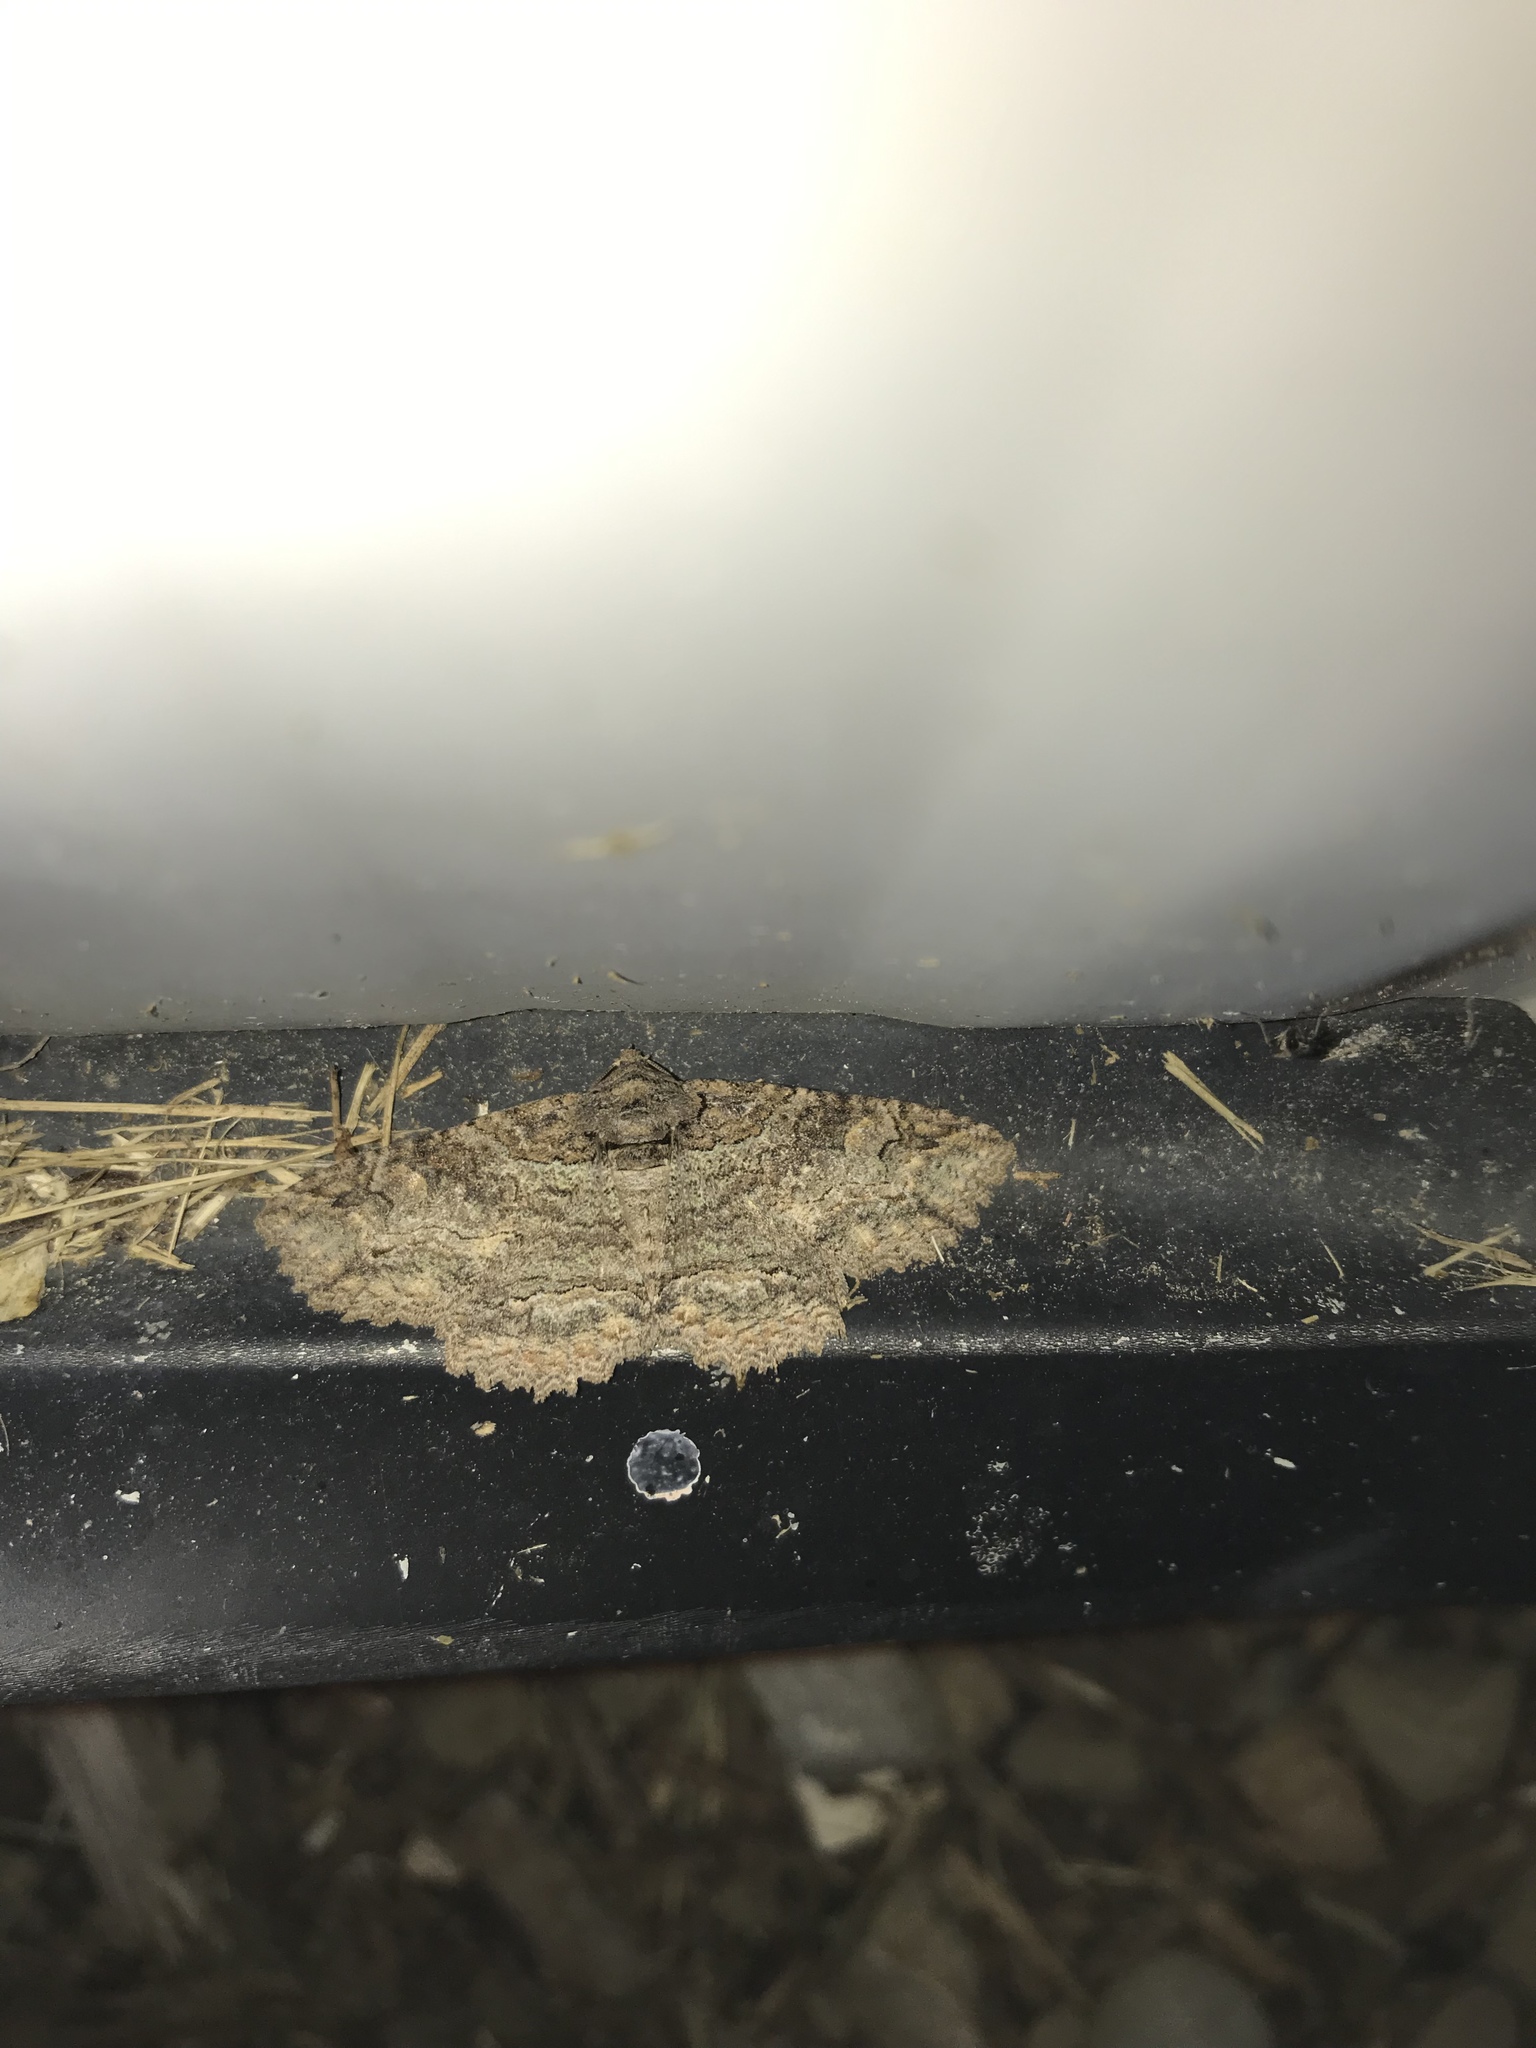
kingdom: Animalia
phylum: Arthropoda
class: Insecta
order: Lepidoptera
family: Erebidae
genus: Zale
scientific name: Zale galbanata
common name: Maple zale
